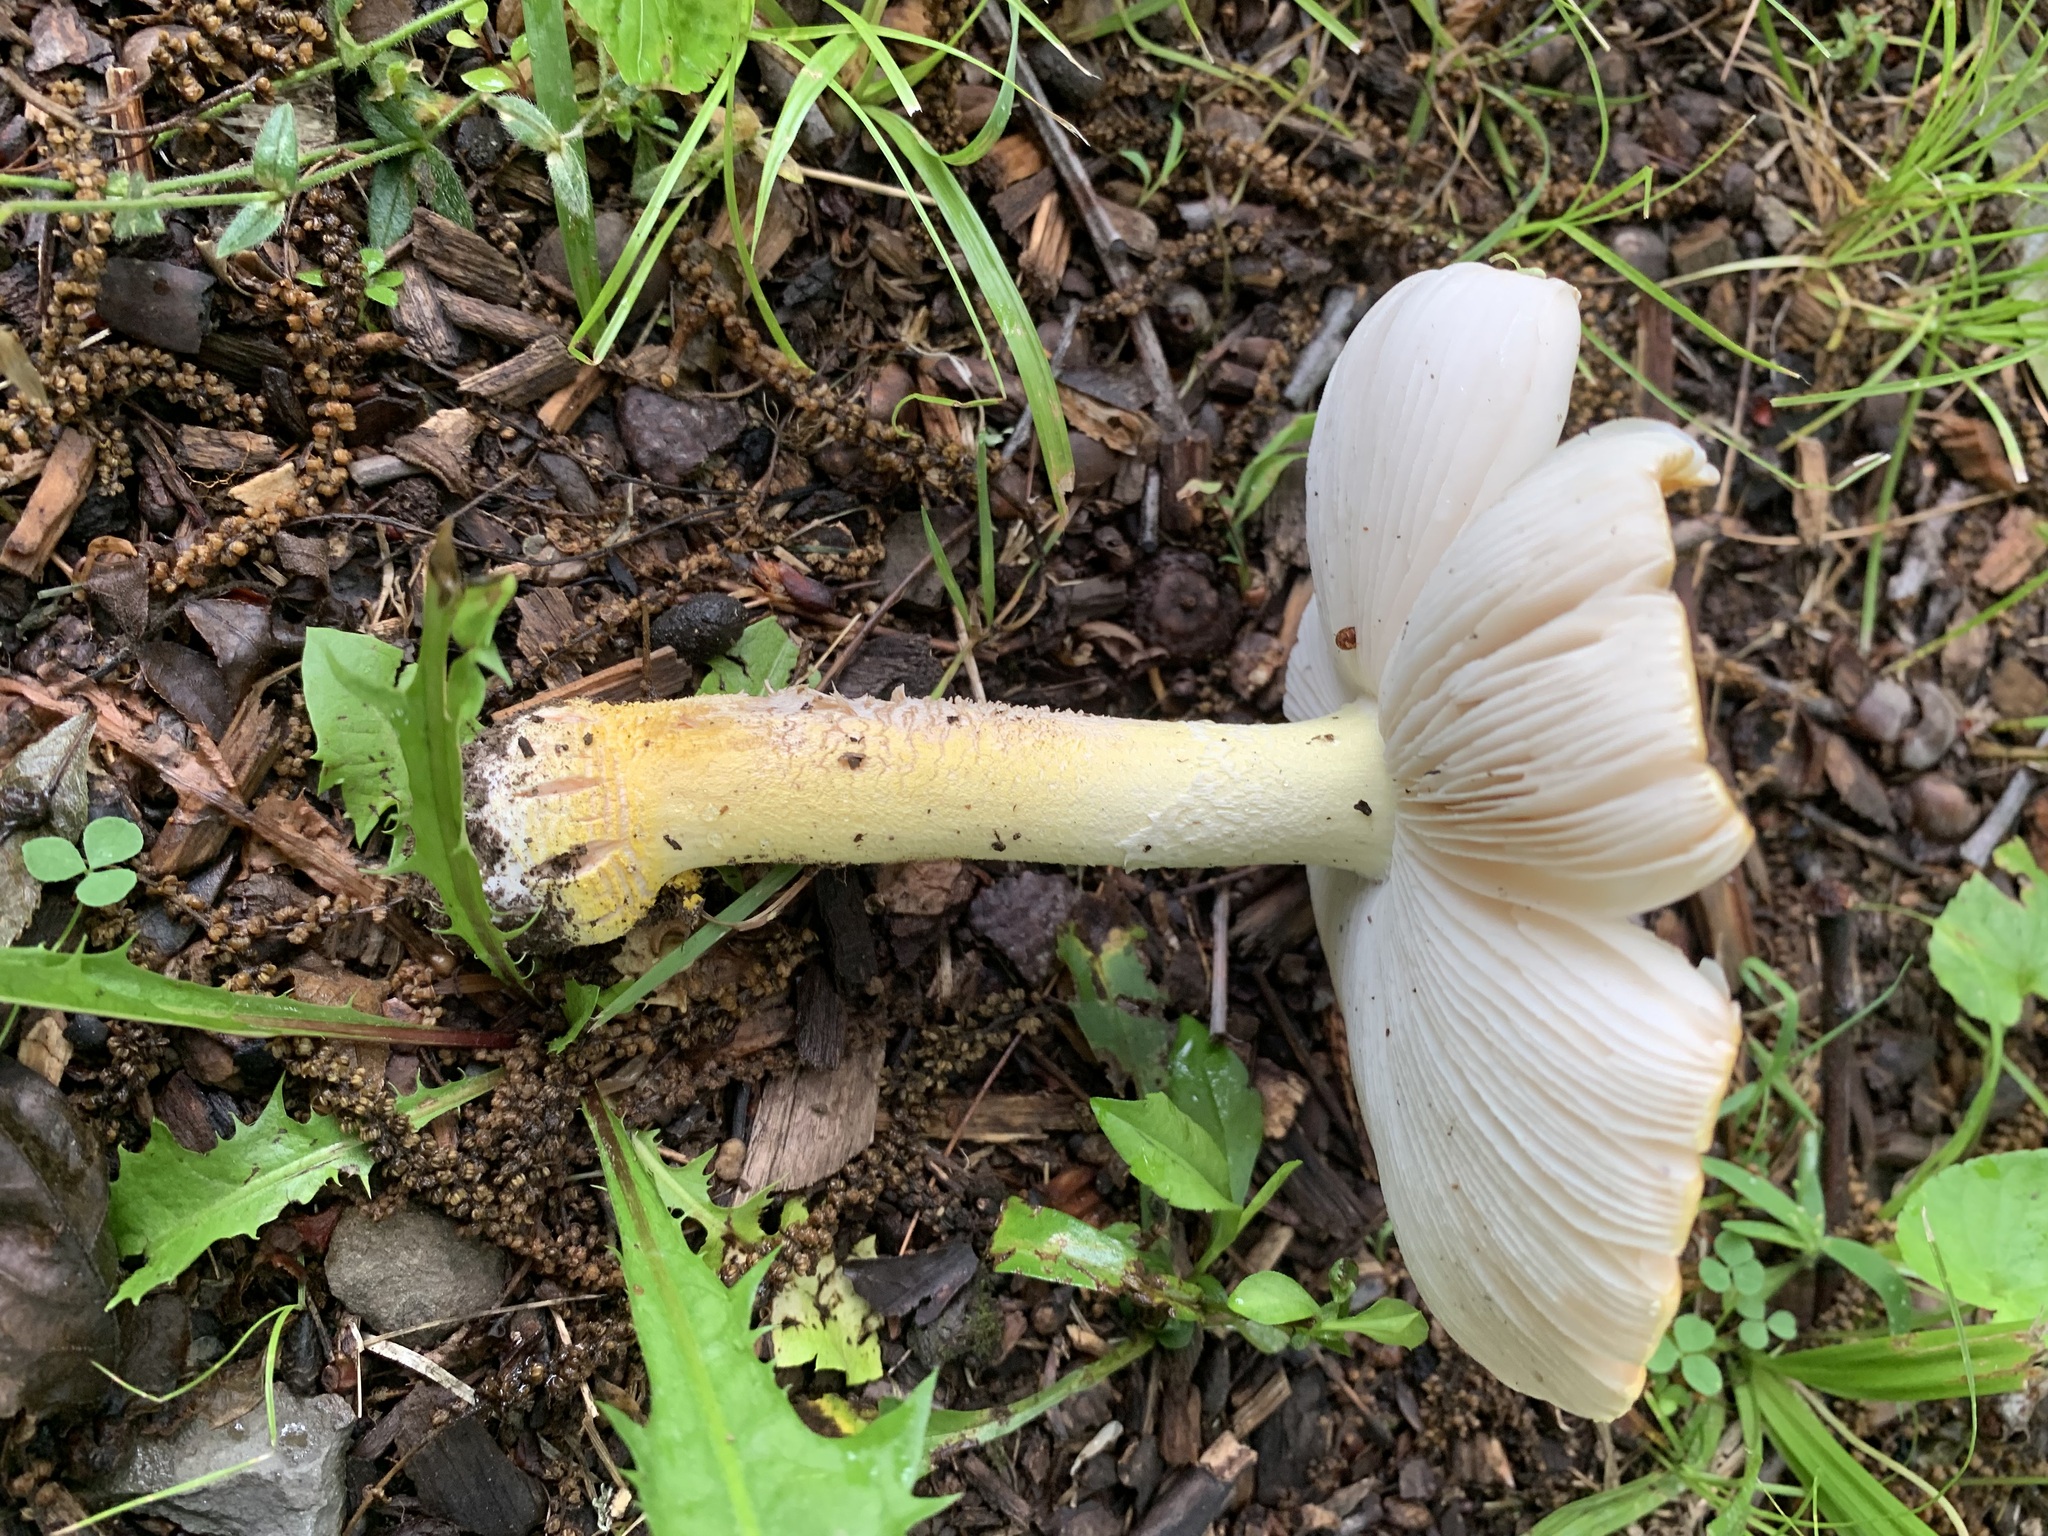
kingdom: Fungi
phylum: Basidiomycota
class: Agaricomycetes
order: Agaricales
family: Amanitaceae
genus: Amanita
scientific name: Amanita flavorubens
